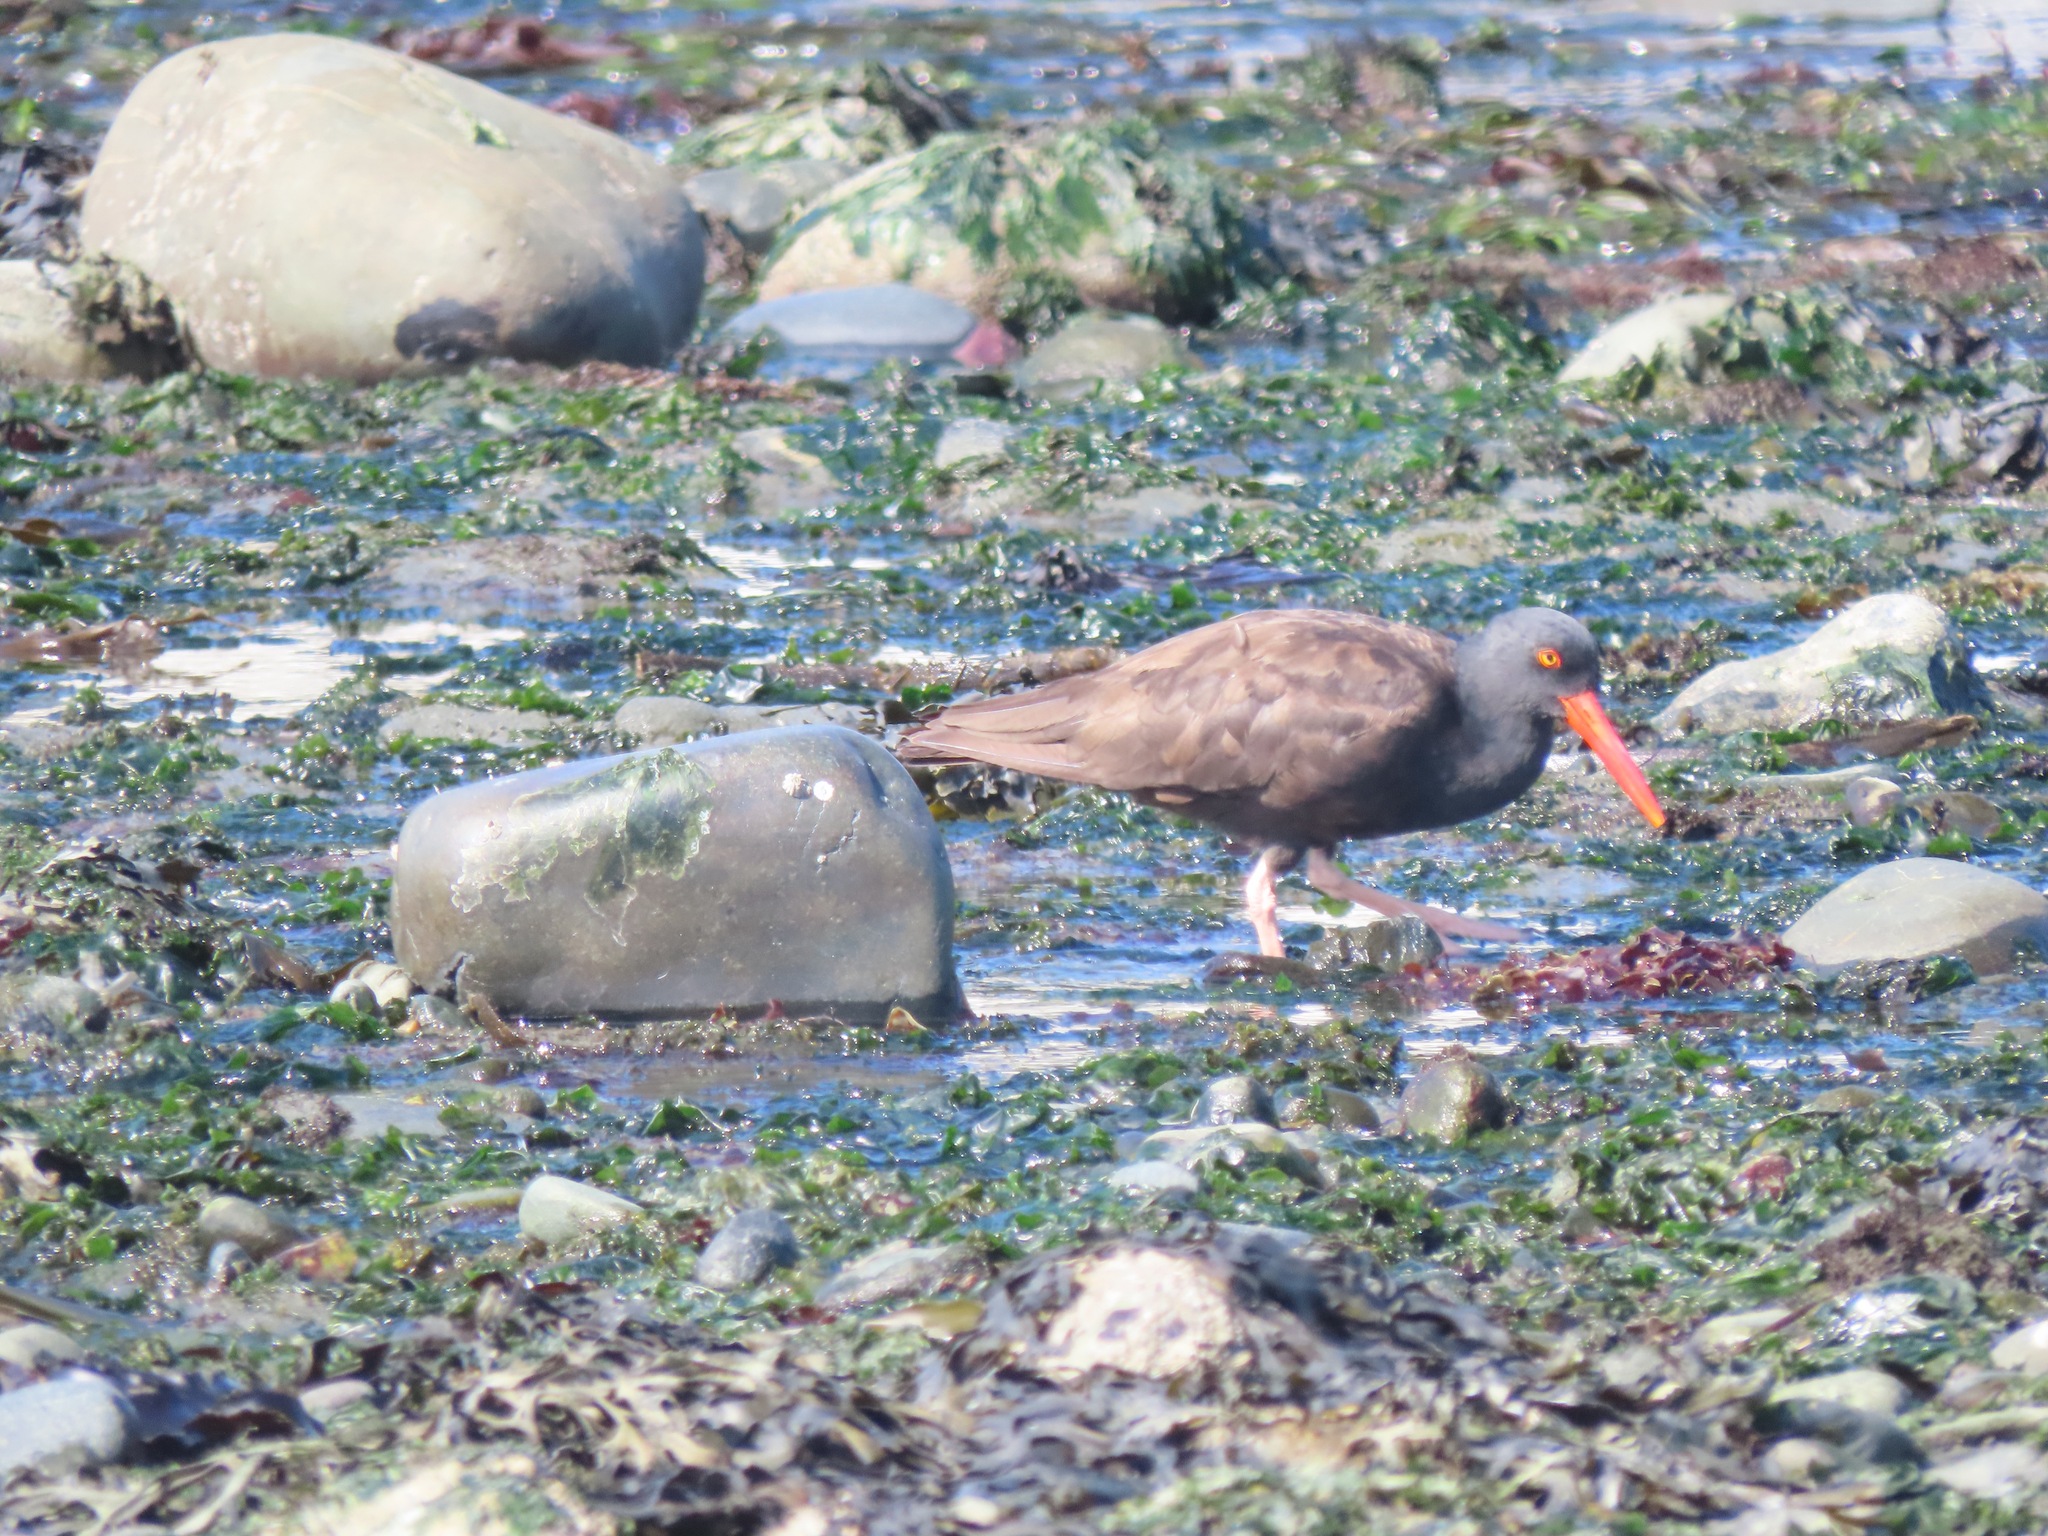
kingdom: Animalia
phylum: Chordata
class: Aves
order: Charadriiformes
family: Haematopodidae
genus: Haematopus
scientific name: Haematopus bachmani
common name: Black oystercatcher
